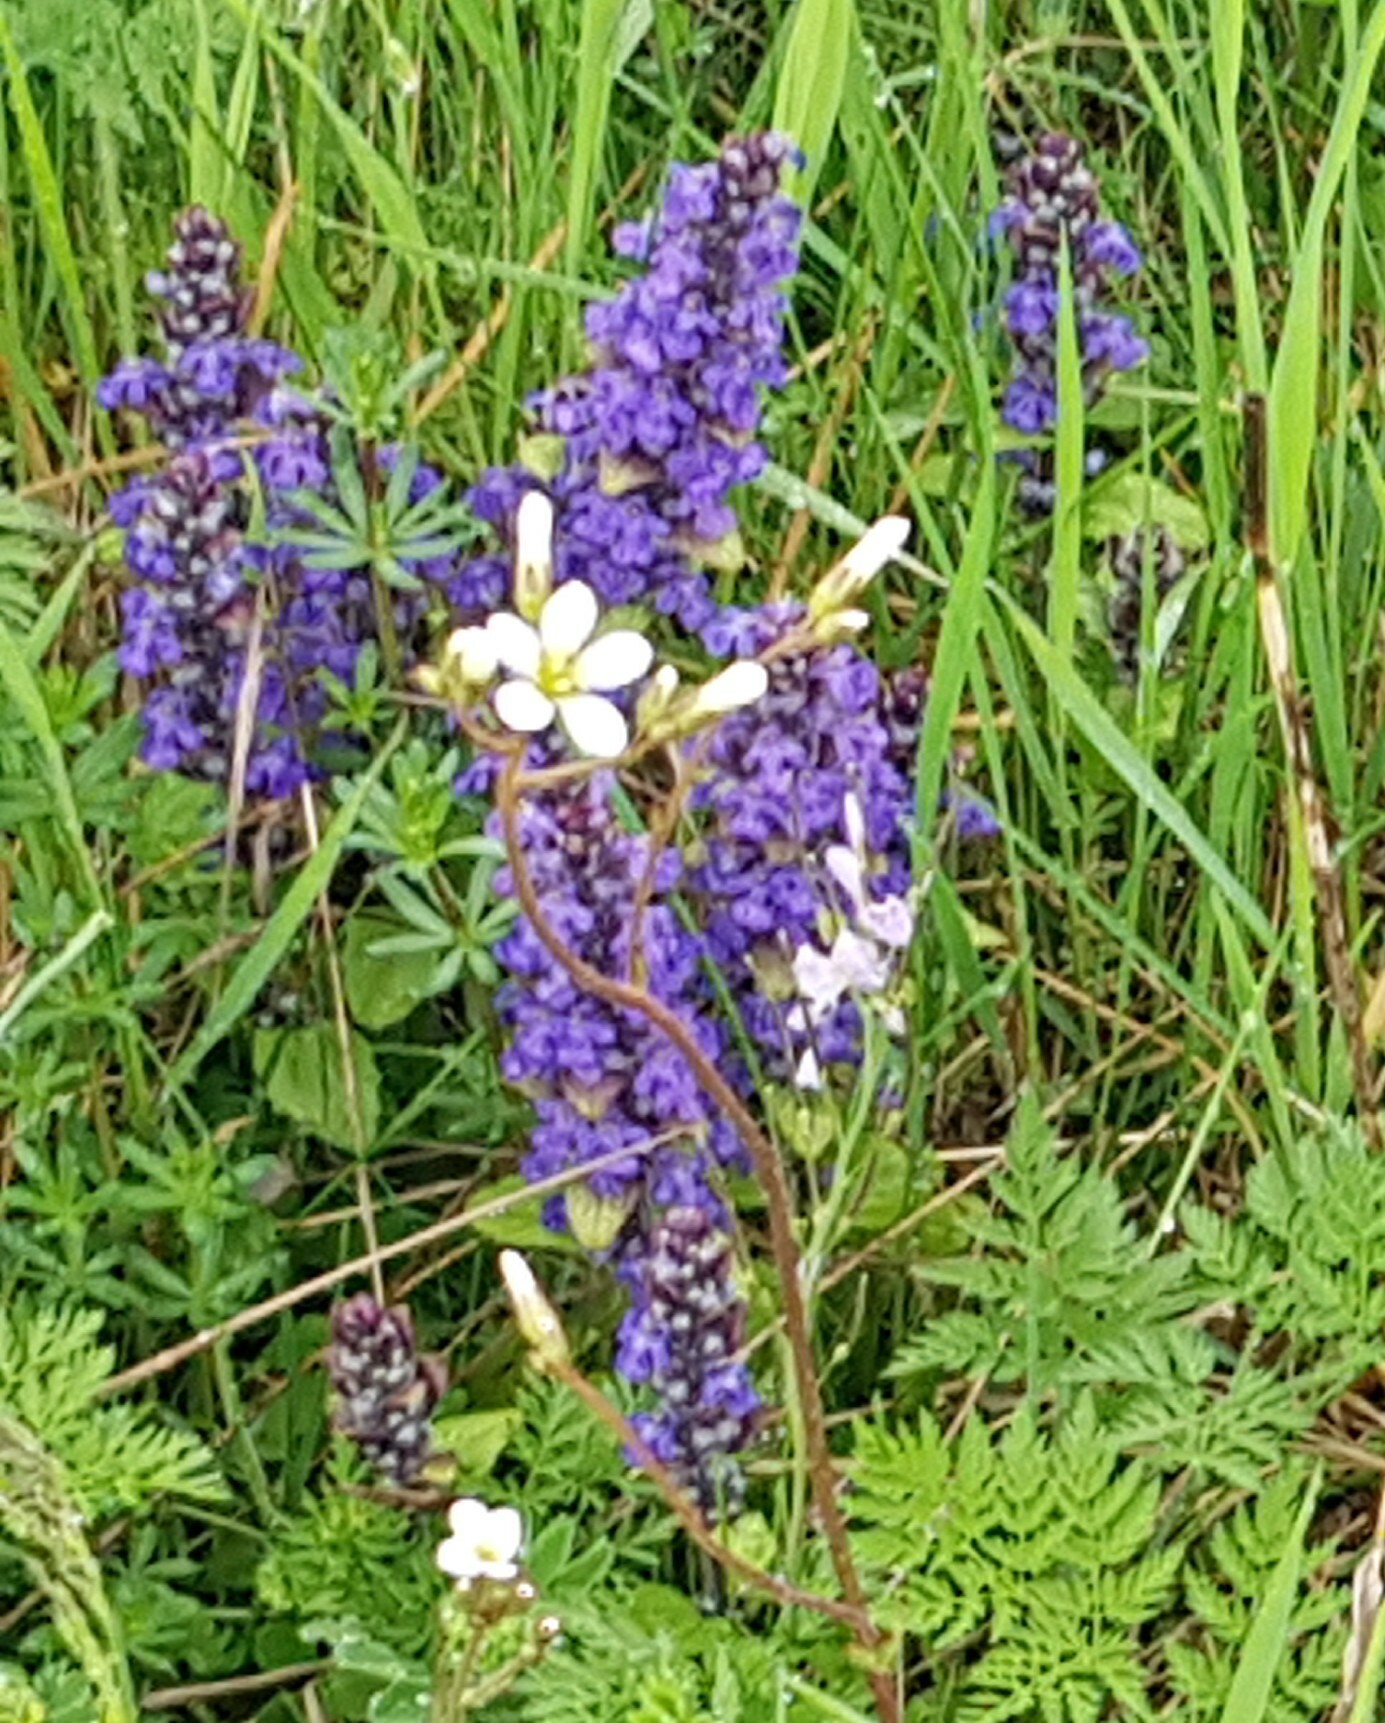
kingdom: Plantae
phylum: Tracheophyta
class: Magnoliopsida
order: Saxifragales
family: Saxifragaceae
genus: Saxifraga
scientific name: Saxifraga granulata
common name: Meadow saxifrage
